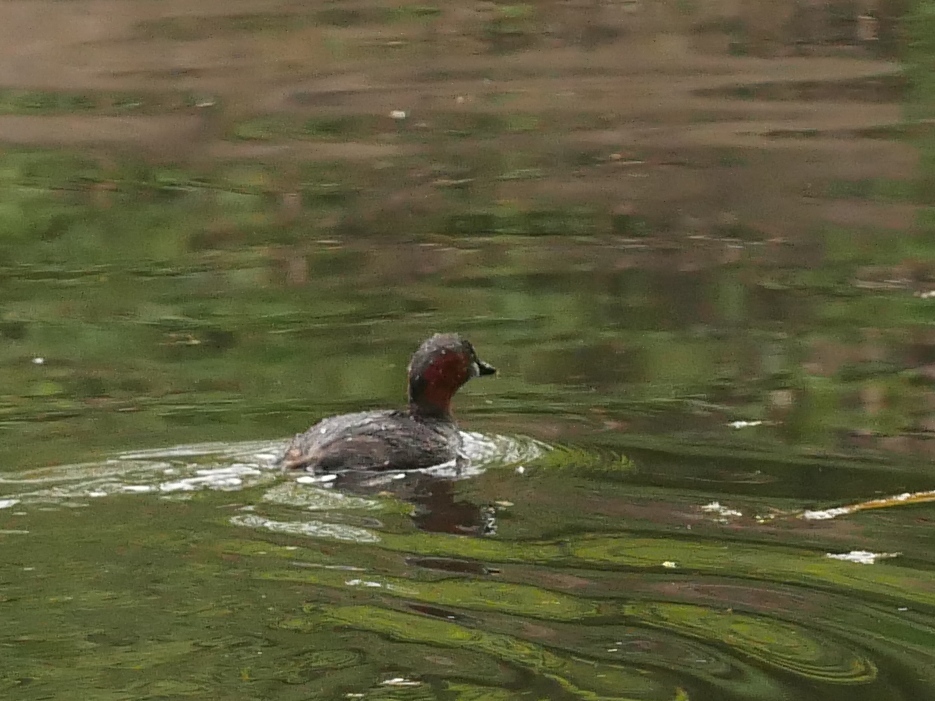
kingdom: Animalia
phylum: Chordata
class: Aves
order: Podicipediformes
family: Podicipedidae
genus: Tachybaptus
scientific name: Tachybaptus ruficollis
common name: Little grebe
